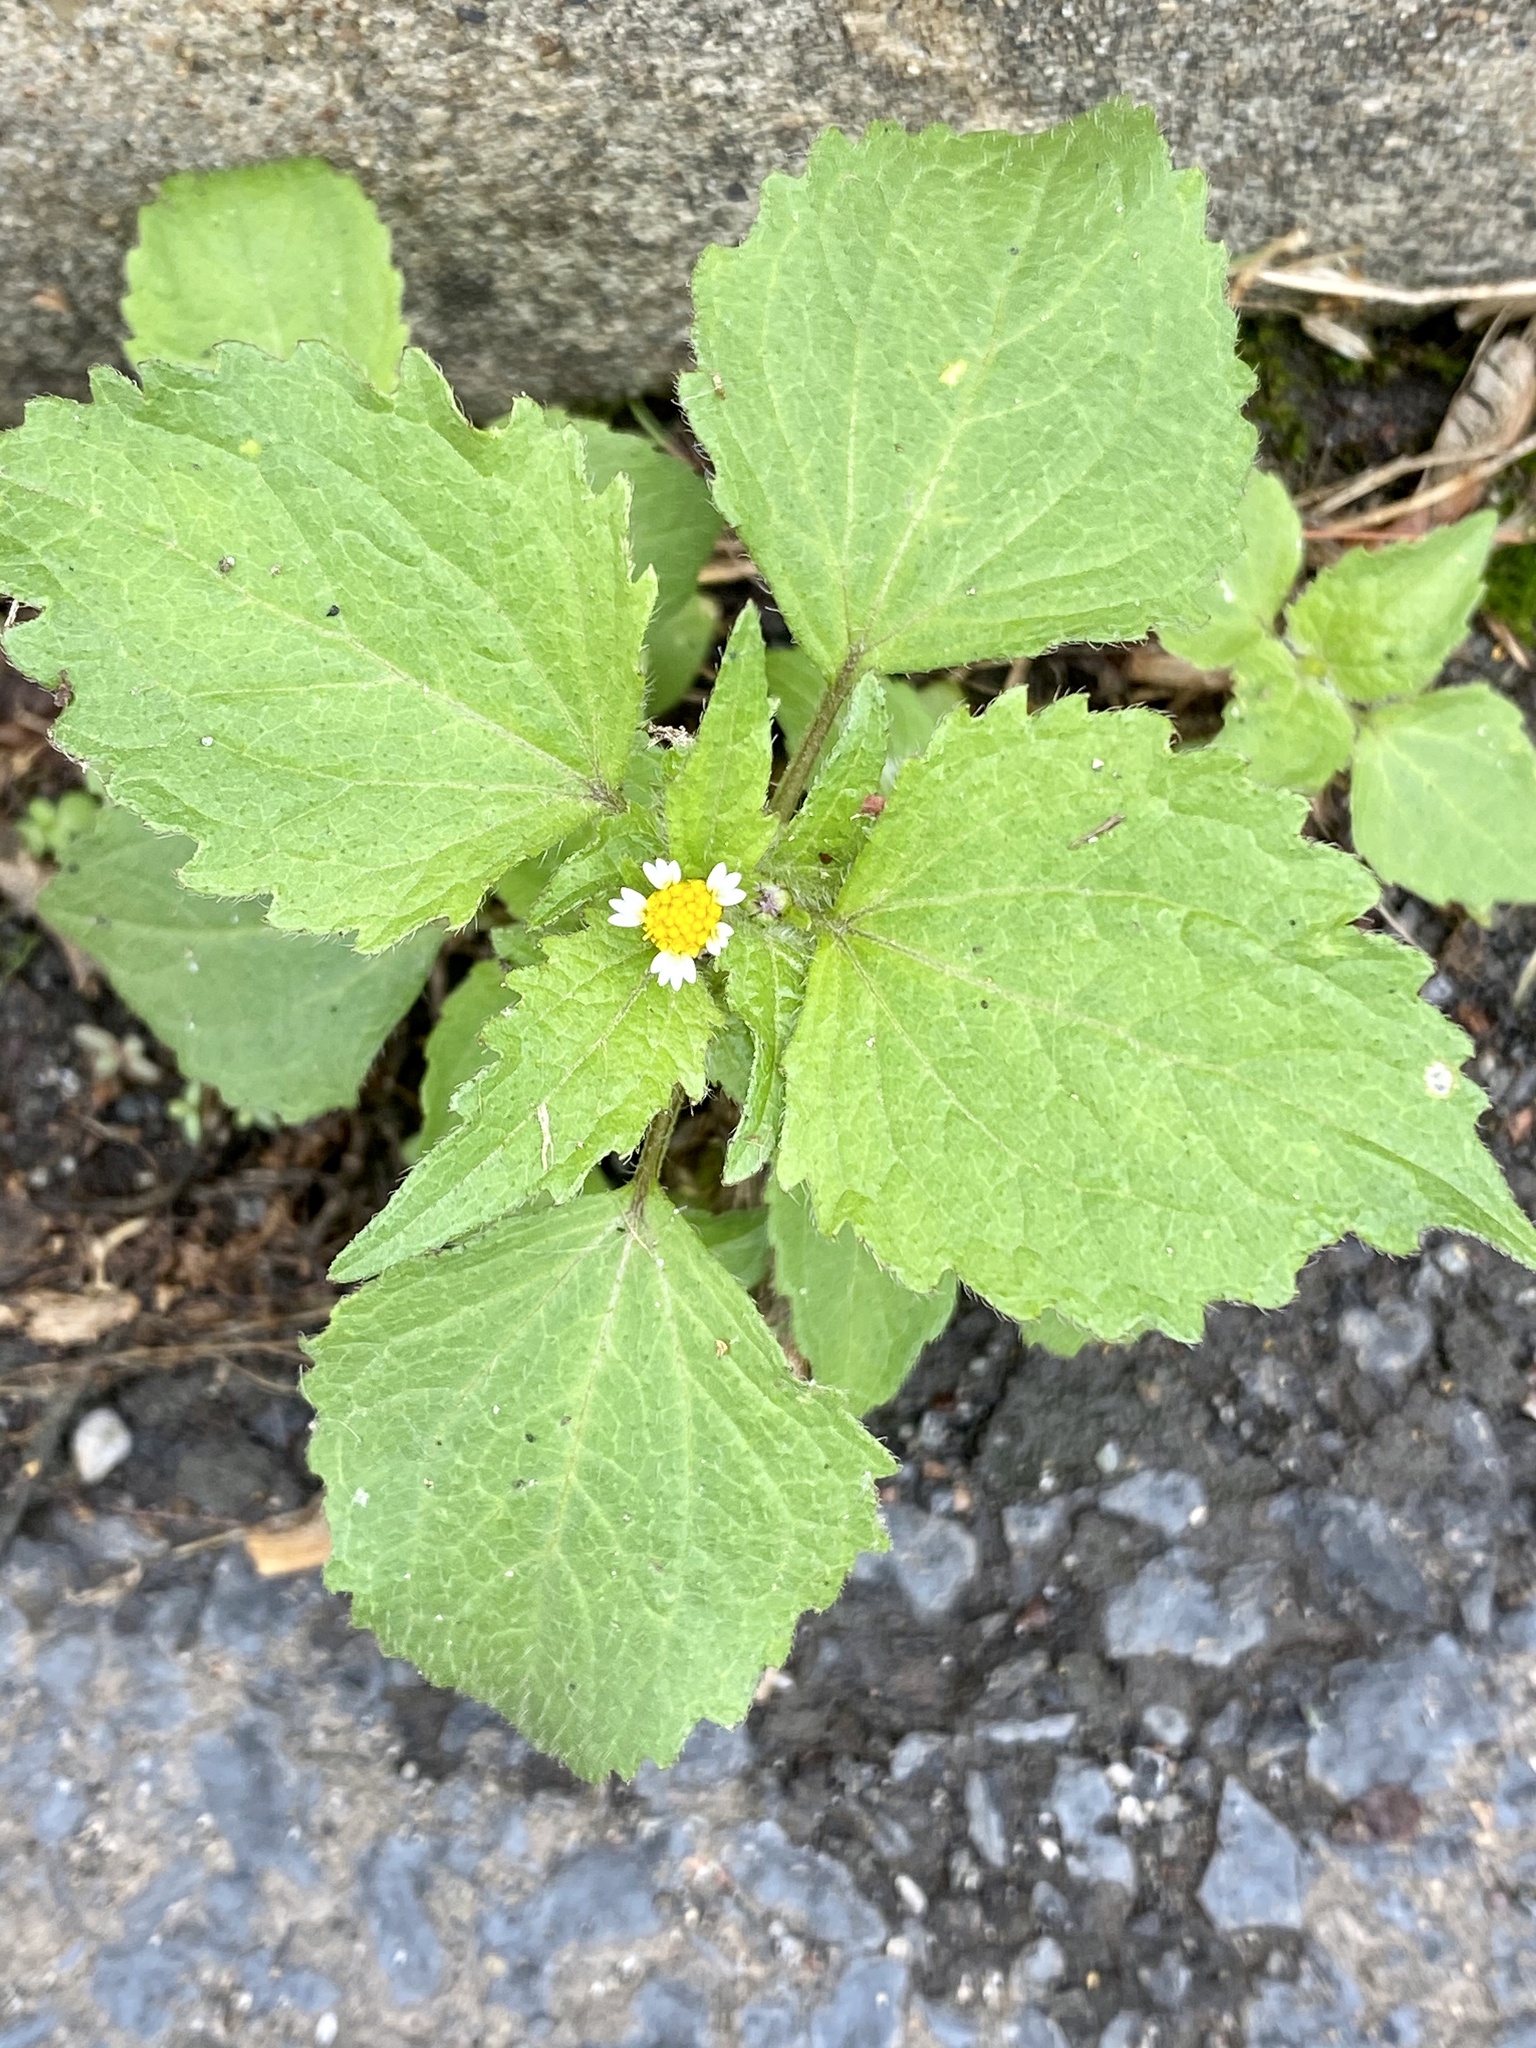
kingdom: Plantae
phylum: Tracheophyta
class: Magnoliopsida
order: Asterales
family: Asteraceae
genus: Galinsoga
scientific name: Galinsoga quadriradiata
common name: Shaggy soldier
